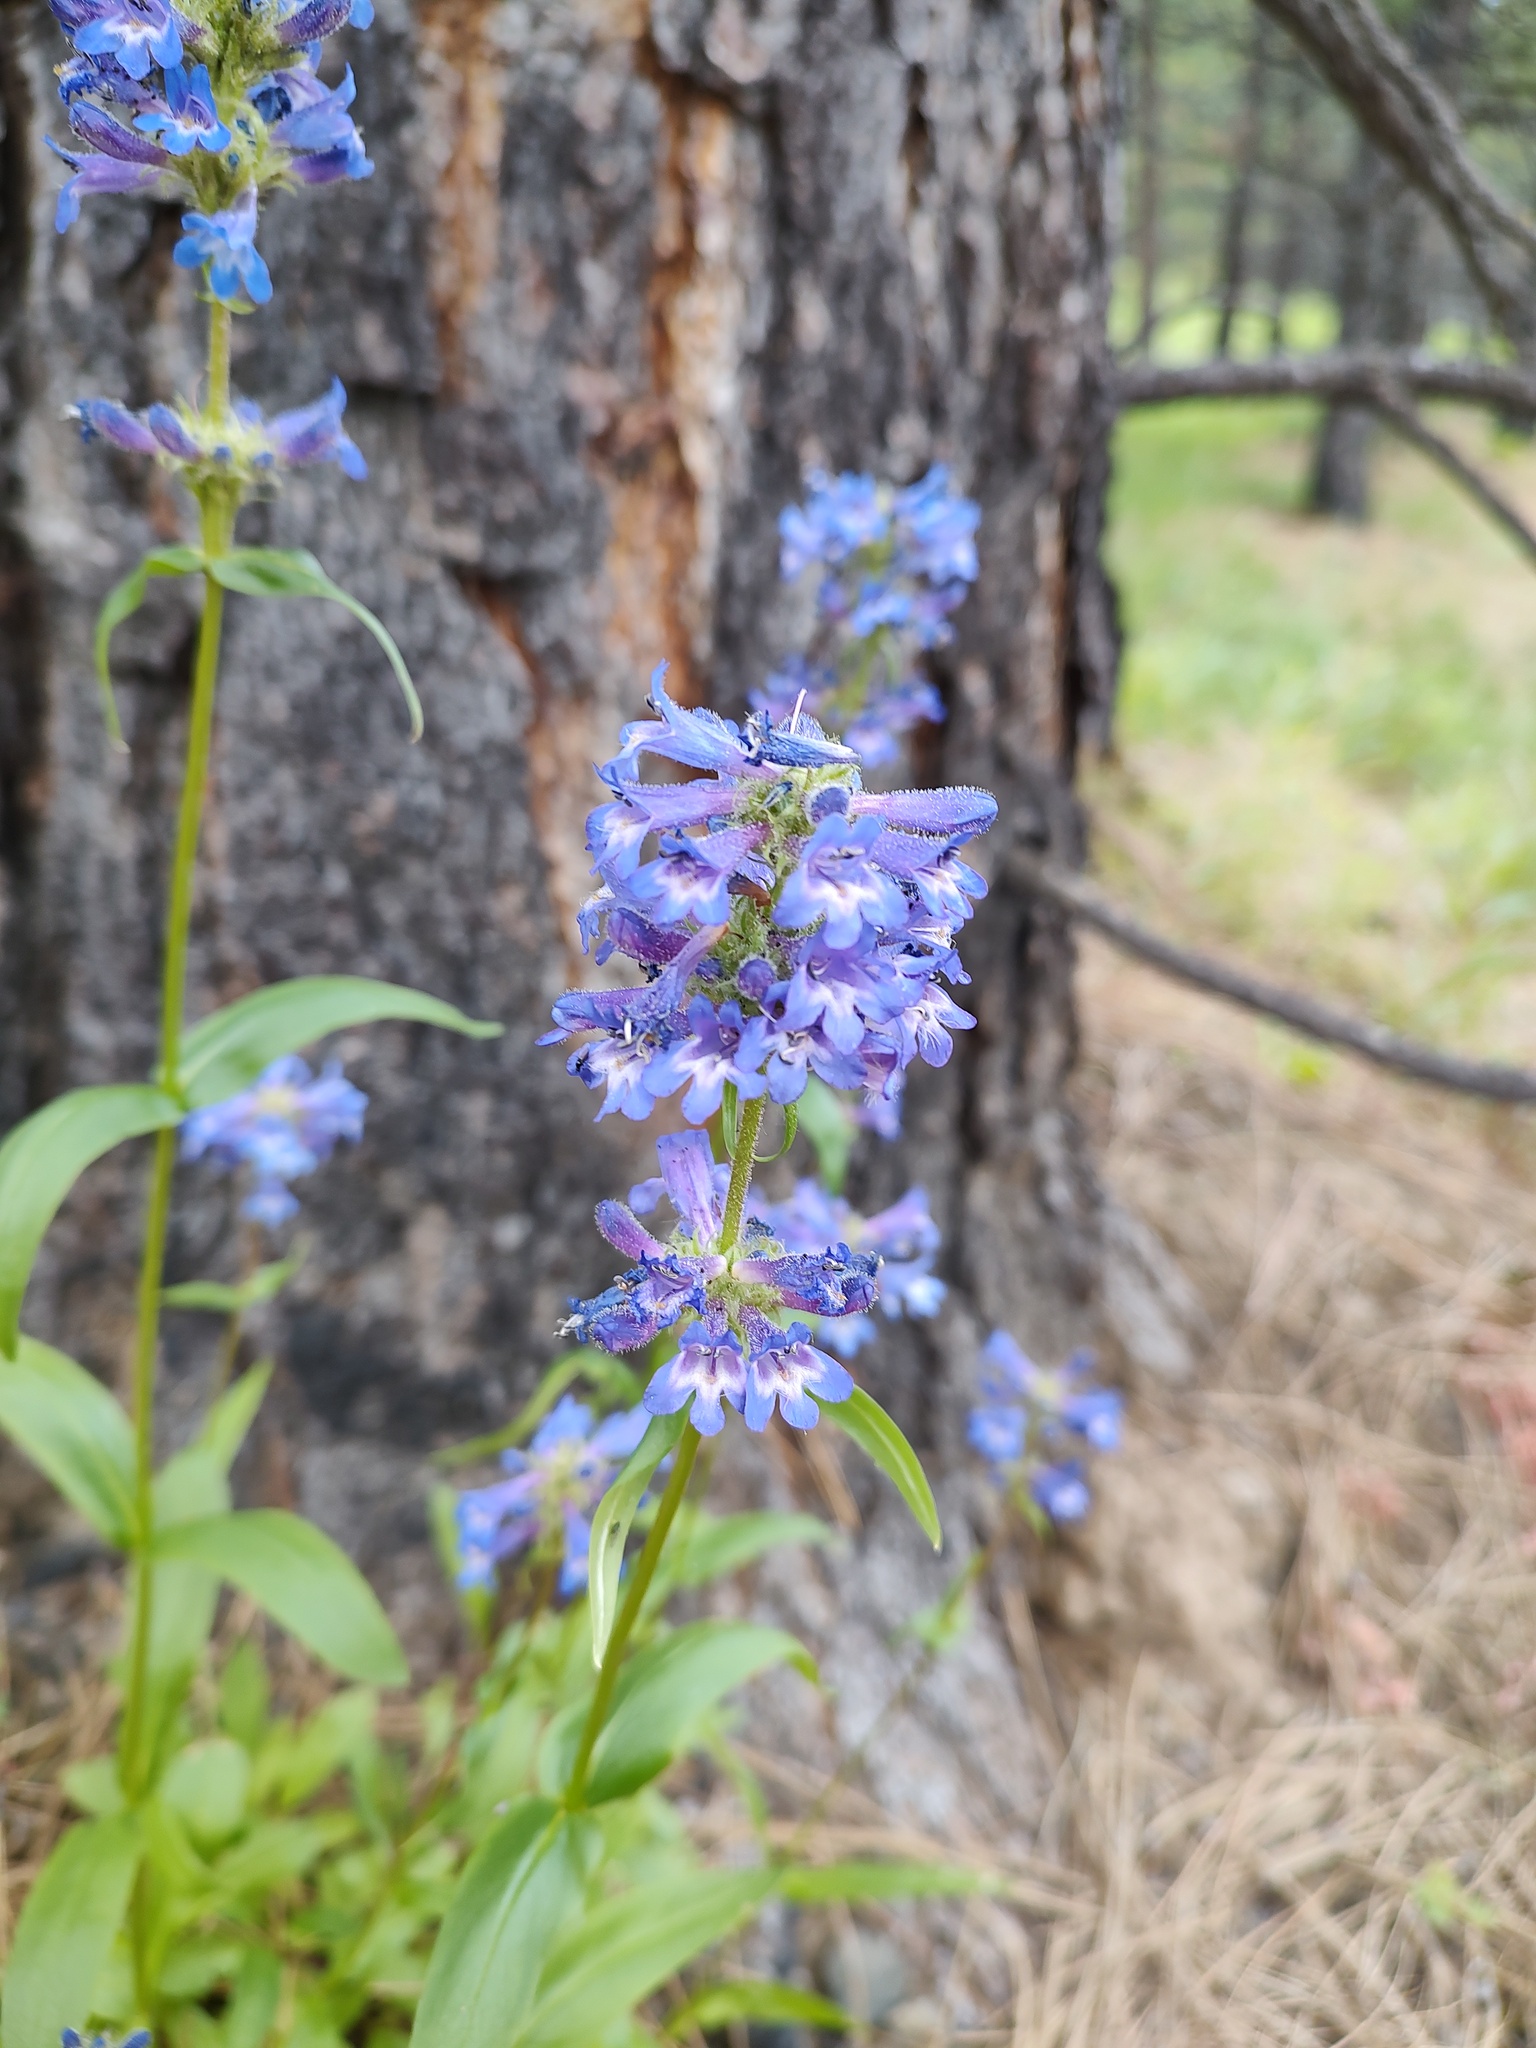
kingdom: Plantae
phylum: Tracheophyta
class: Magnoliopsida
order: Lamiales
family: Plantaginaceae
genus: Penstemon
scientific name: Penstemon attenuatus
